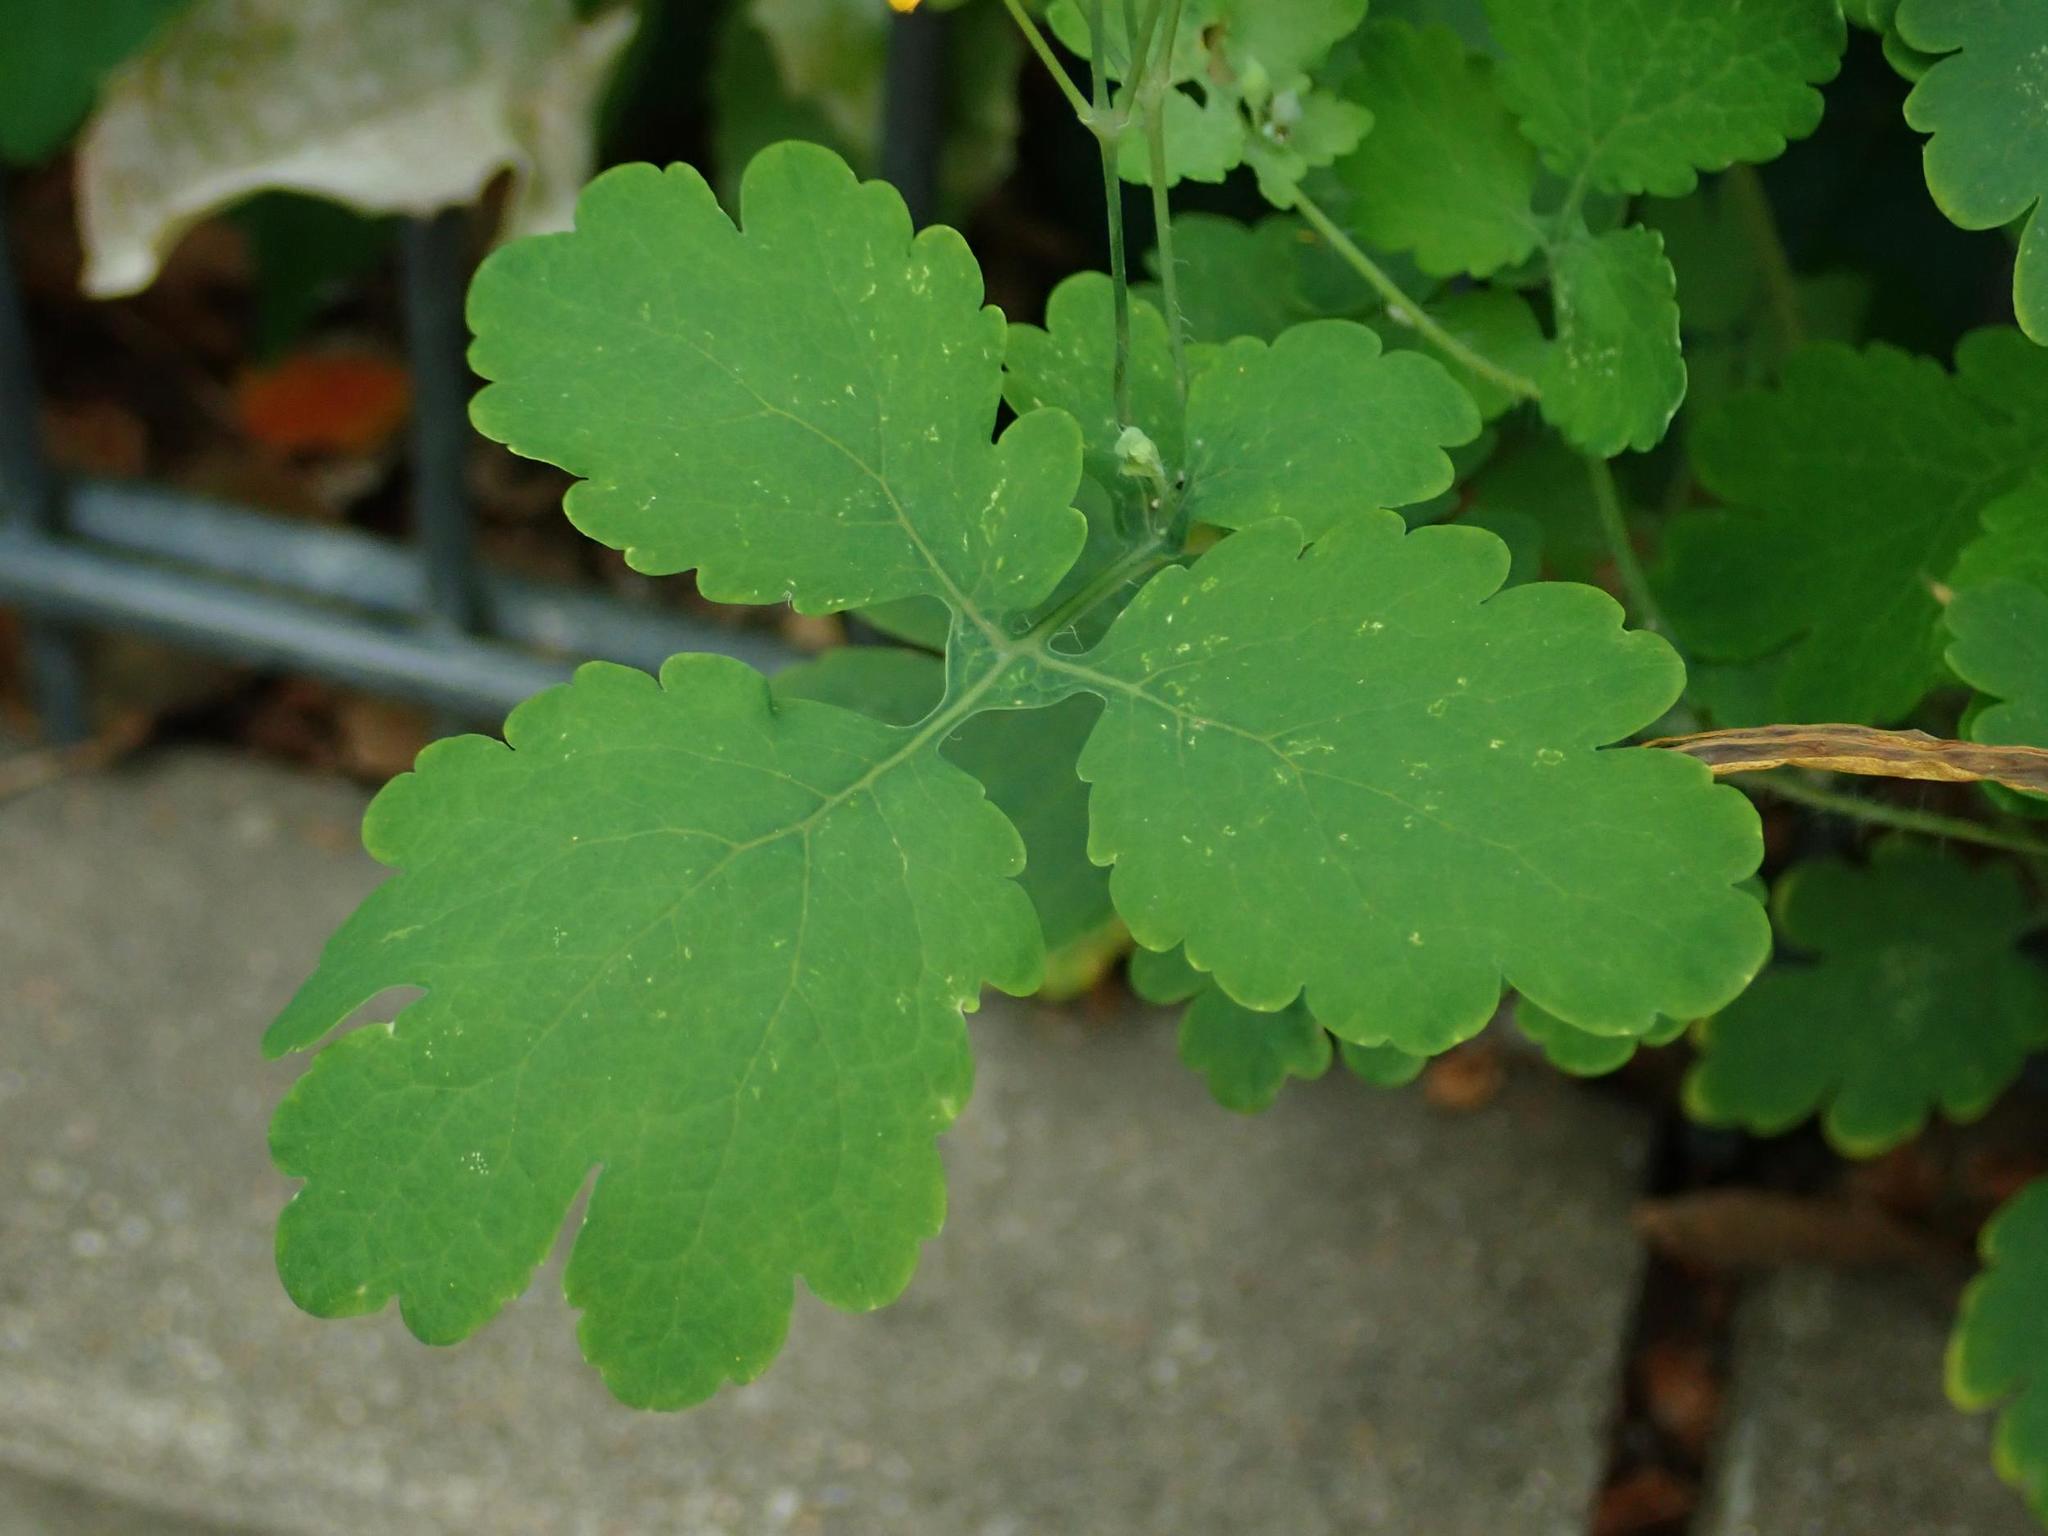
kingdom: Plantae
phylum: Tracheophyta
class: Magnoliopsida
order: Ranunculales
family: Papaveraceae
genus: Chelidonium
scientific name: Chelidonium majus
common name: Greater celandine
